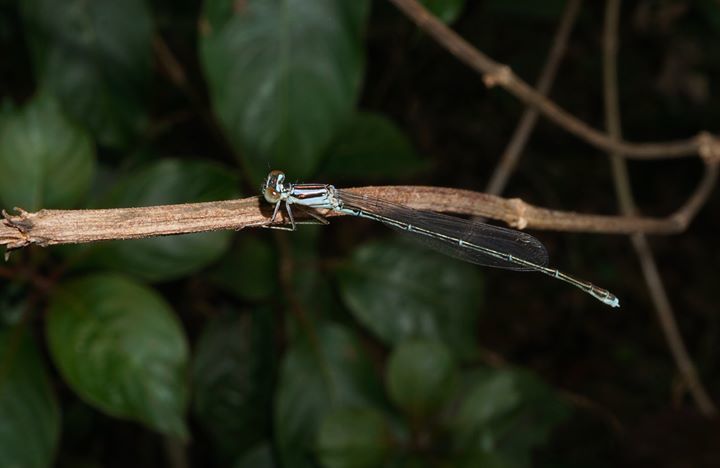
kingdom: Animalia
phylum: Arthropoda
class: Insecta
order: Odonata
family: Coenagrionidae
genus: Enallagma
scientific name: Enallagma pollutum
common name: Florida bluet
